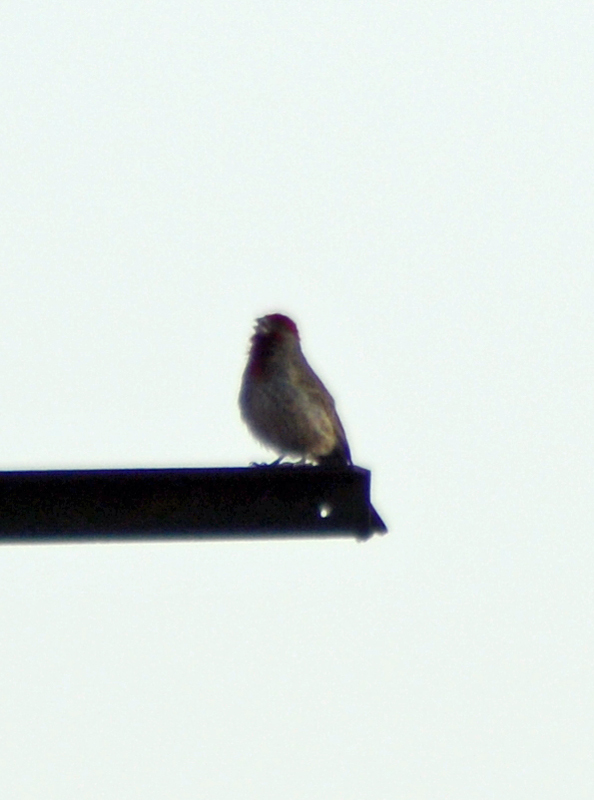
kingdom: Animalia
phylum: Chordata
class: Aves
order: Passeriformes
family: Fringillidae
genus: Haemorhous
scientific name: Haemorhous mexicanus
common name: House finch
